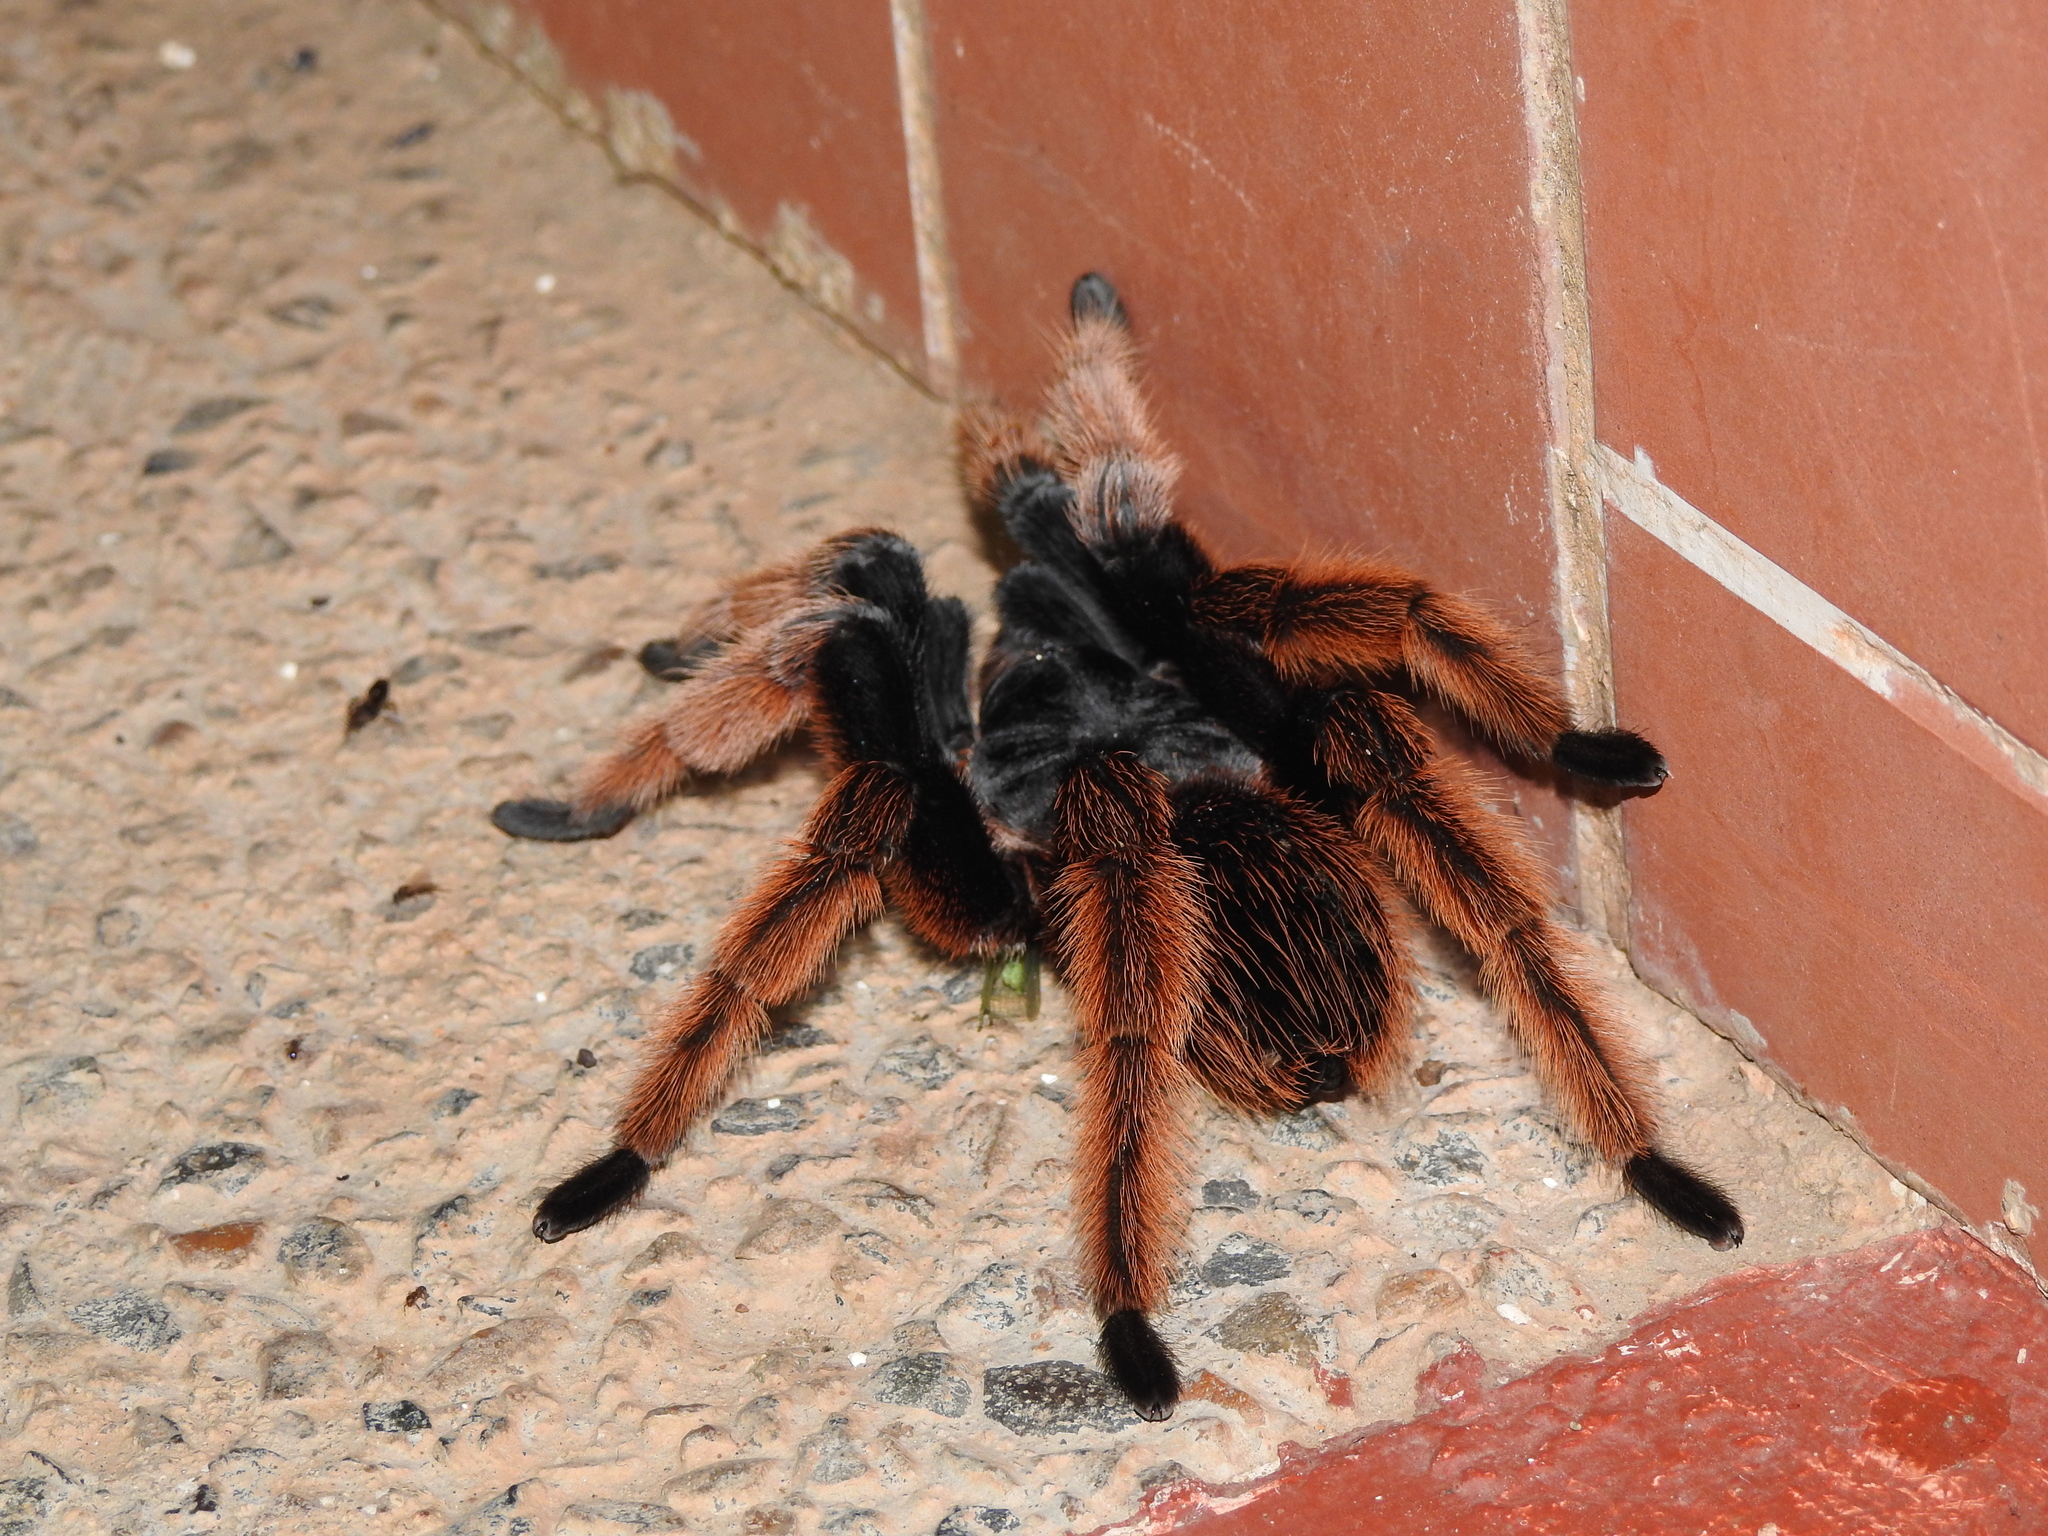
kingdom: Animalia
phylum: Arthropoda
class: Arachnida
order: Araneae
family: Theraphosidae
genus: Brachypelma
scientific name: Brachypelma klaasi
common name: Mexican pink beauty
